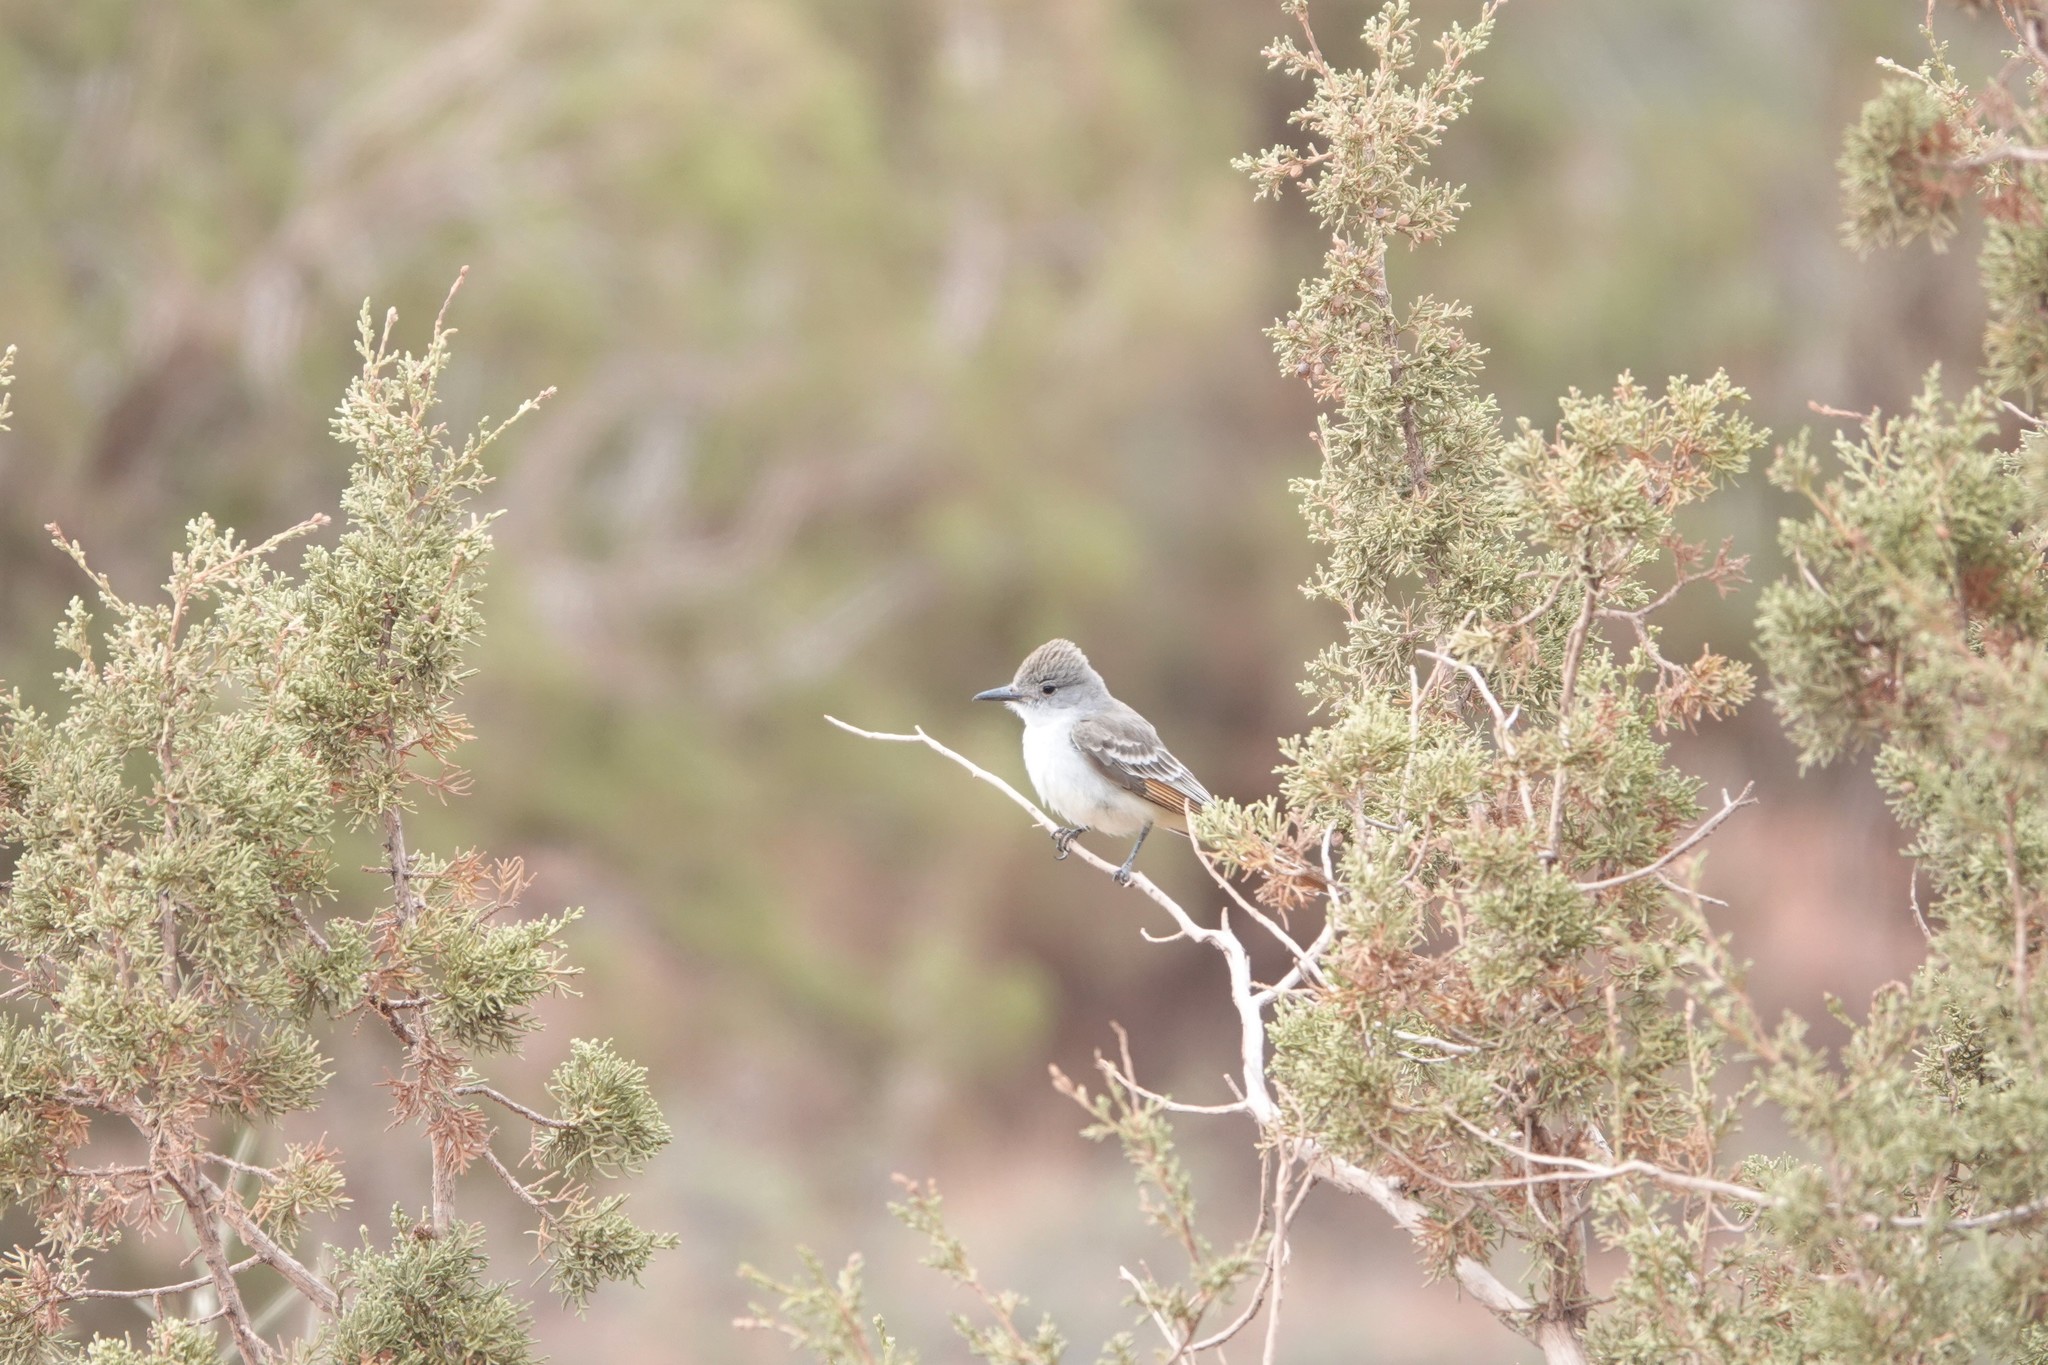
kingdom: Animalia
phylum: Chordata
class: Aves
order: Passeriformes
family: Tyrannidae
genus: Myiarchus
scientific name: Myiarchus cinerascens
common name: Ash-throated flycatcher
